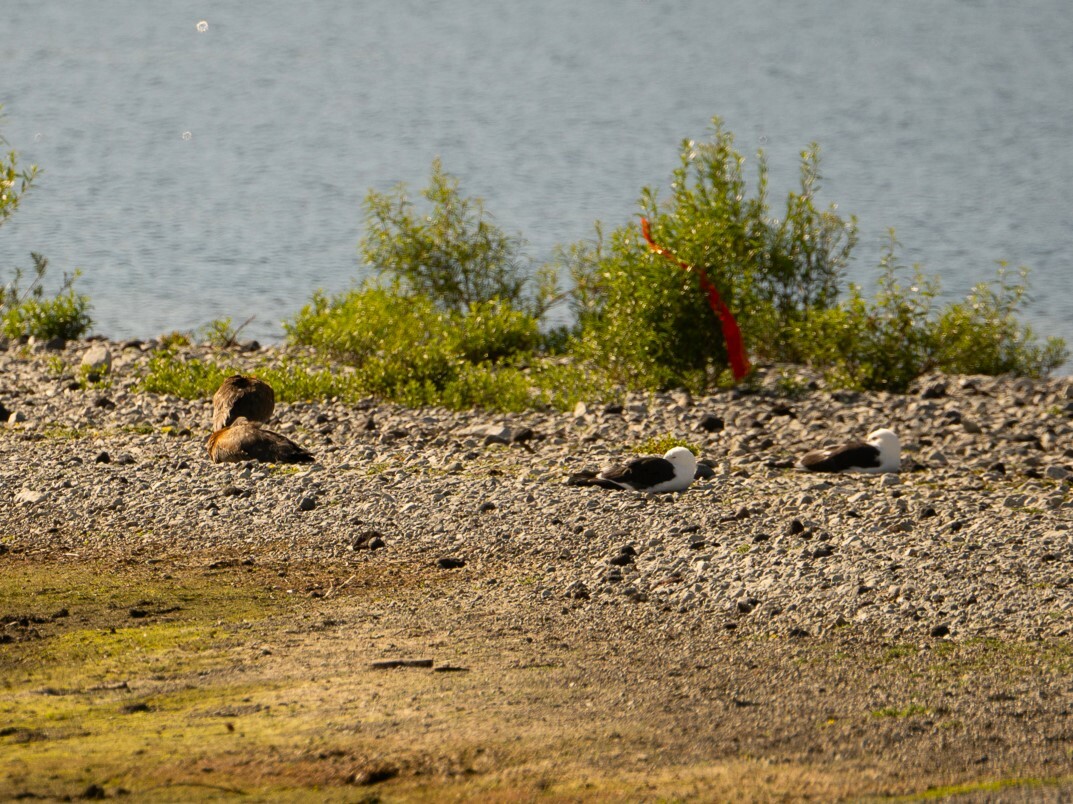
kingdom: Animalia
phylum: Chordata
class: Aves
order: Charadriiformes
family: Laridae
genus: Larus
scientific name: Larus dominicanus
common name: Kelp gull
